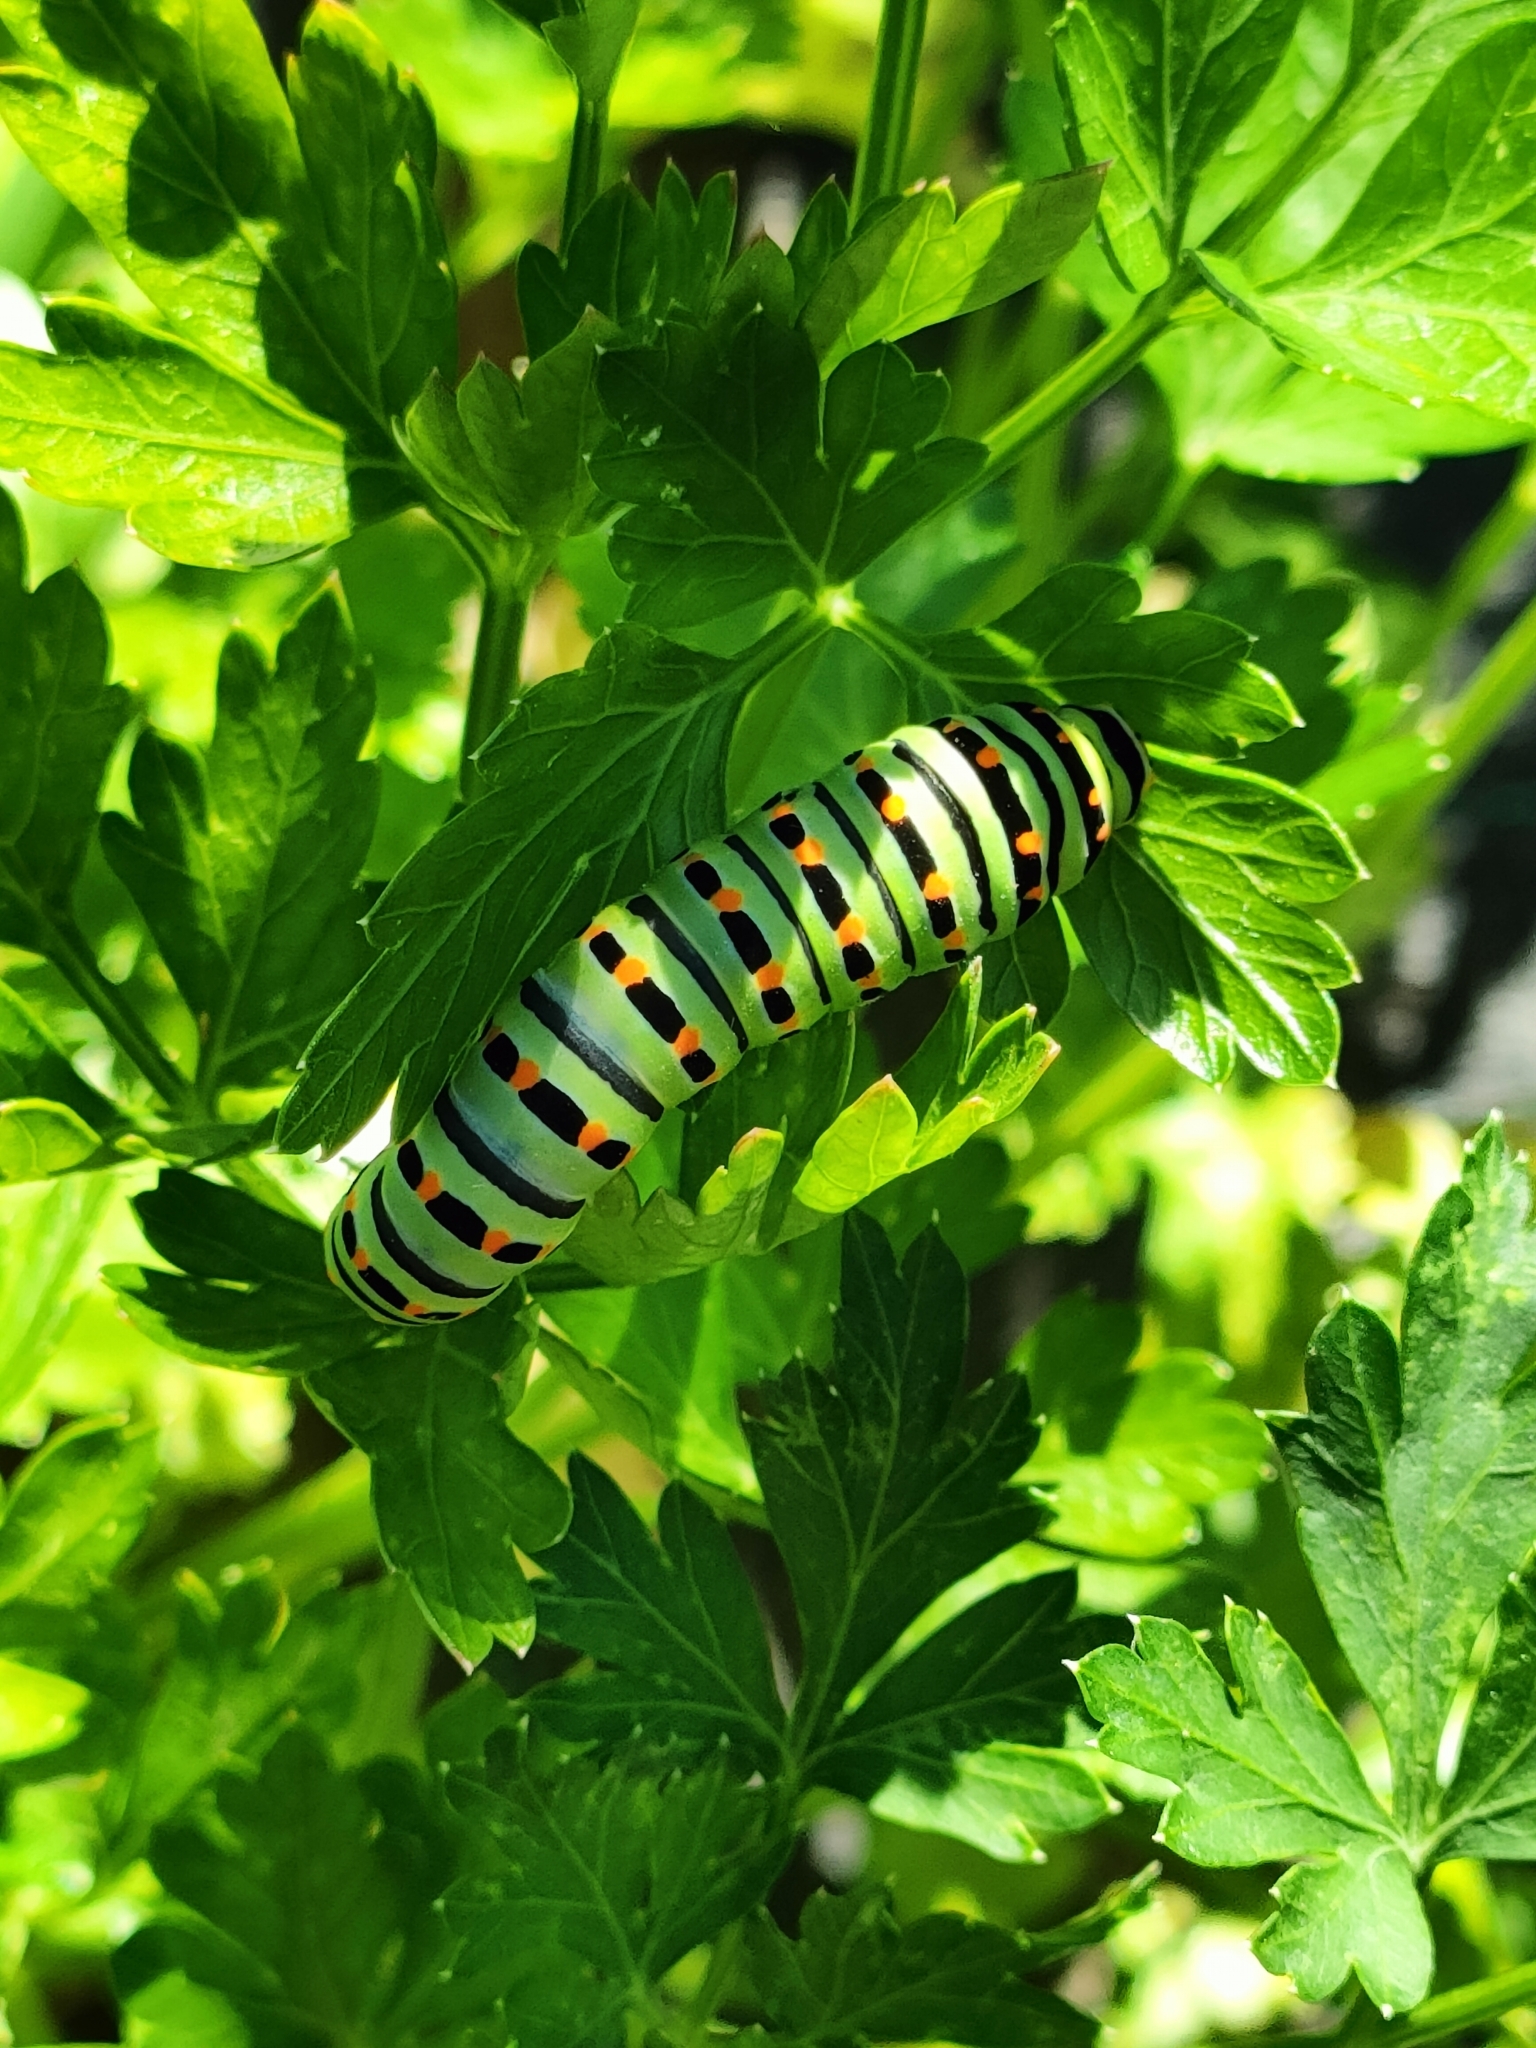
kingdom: Animalia
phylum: Arthropoda
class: Insecta
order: Lepidoptera
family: Papilionidae
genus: Papilio
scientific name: Papilio machaon
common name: Swallowtail
